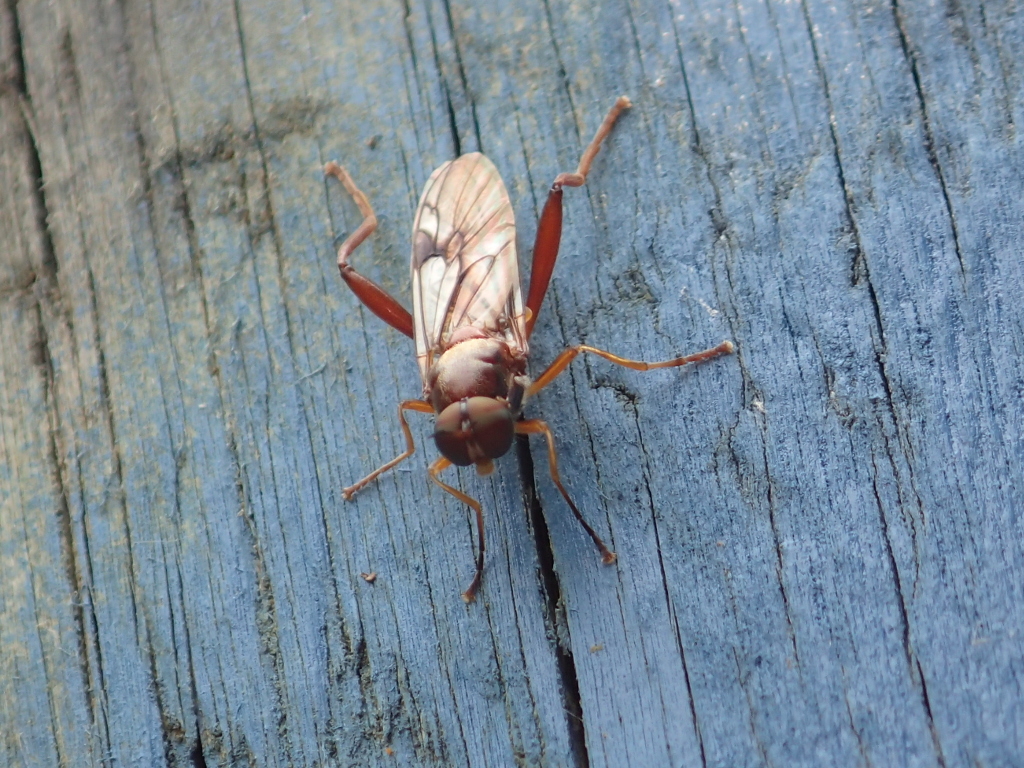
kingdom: Animalia
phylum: Arthropoda
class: Insecta
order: Diptera
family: Stratiomyidae
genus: Benhamyia
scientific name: Benhamyia straznitzkii
